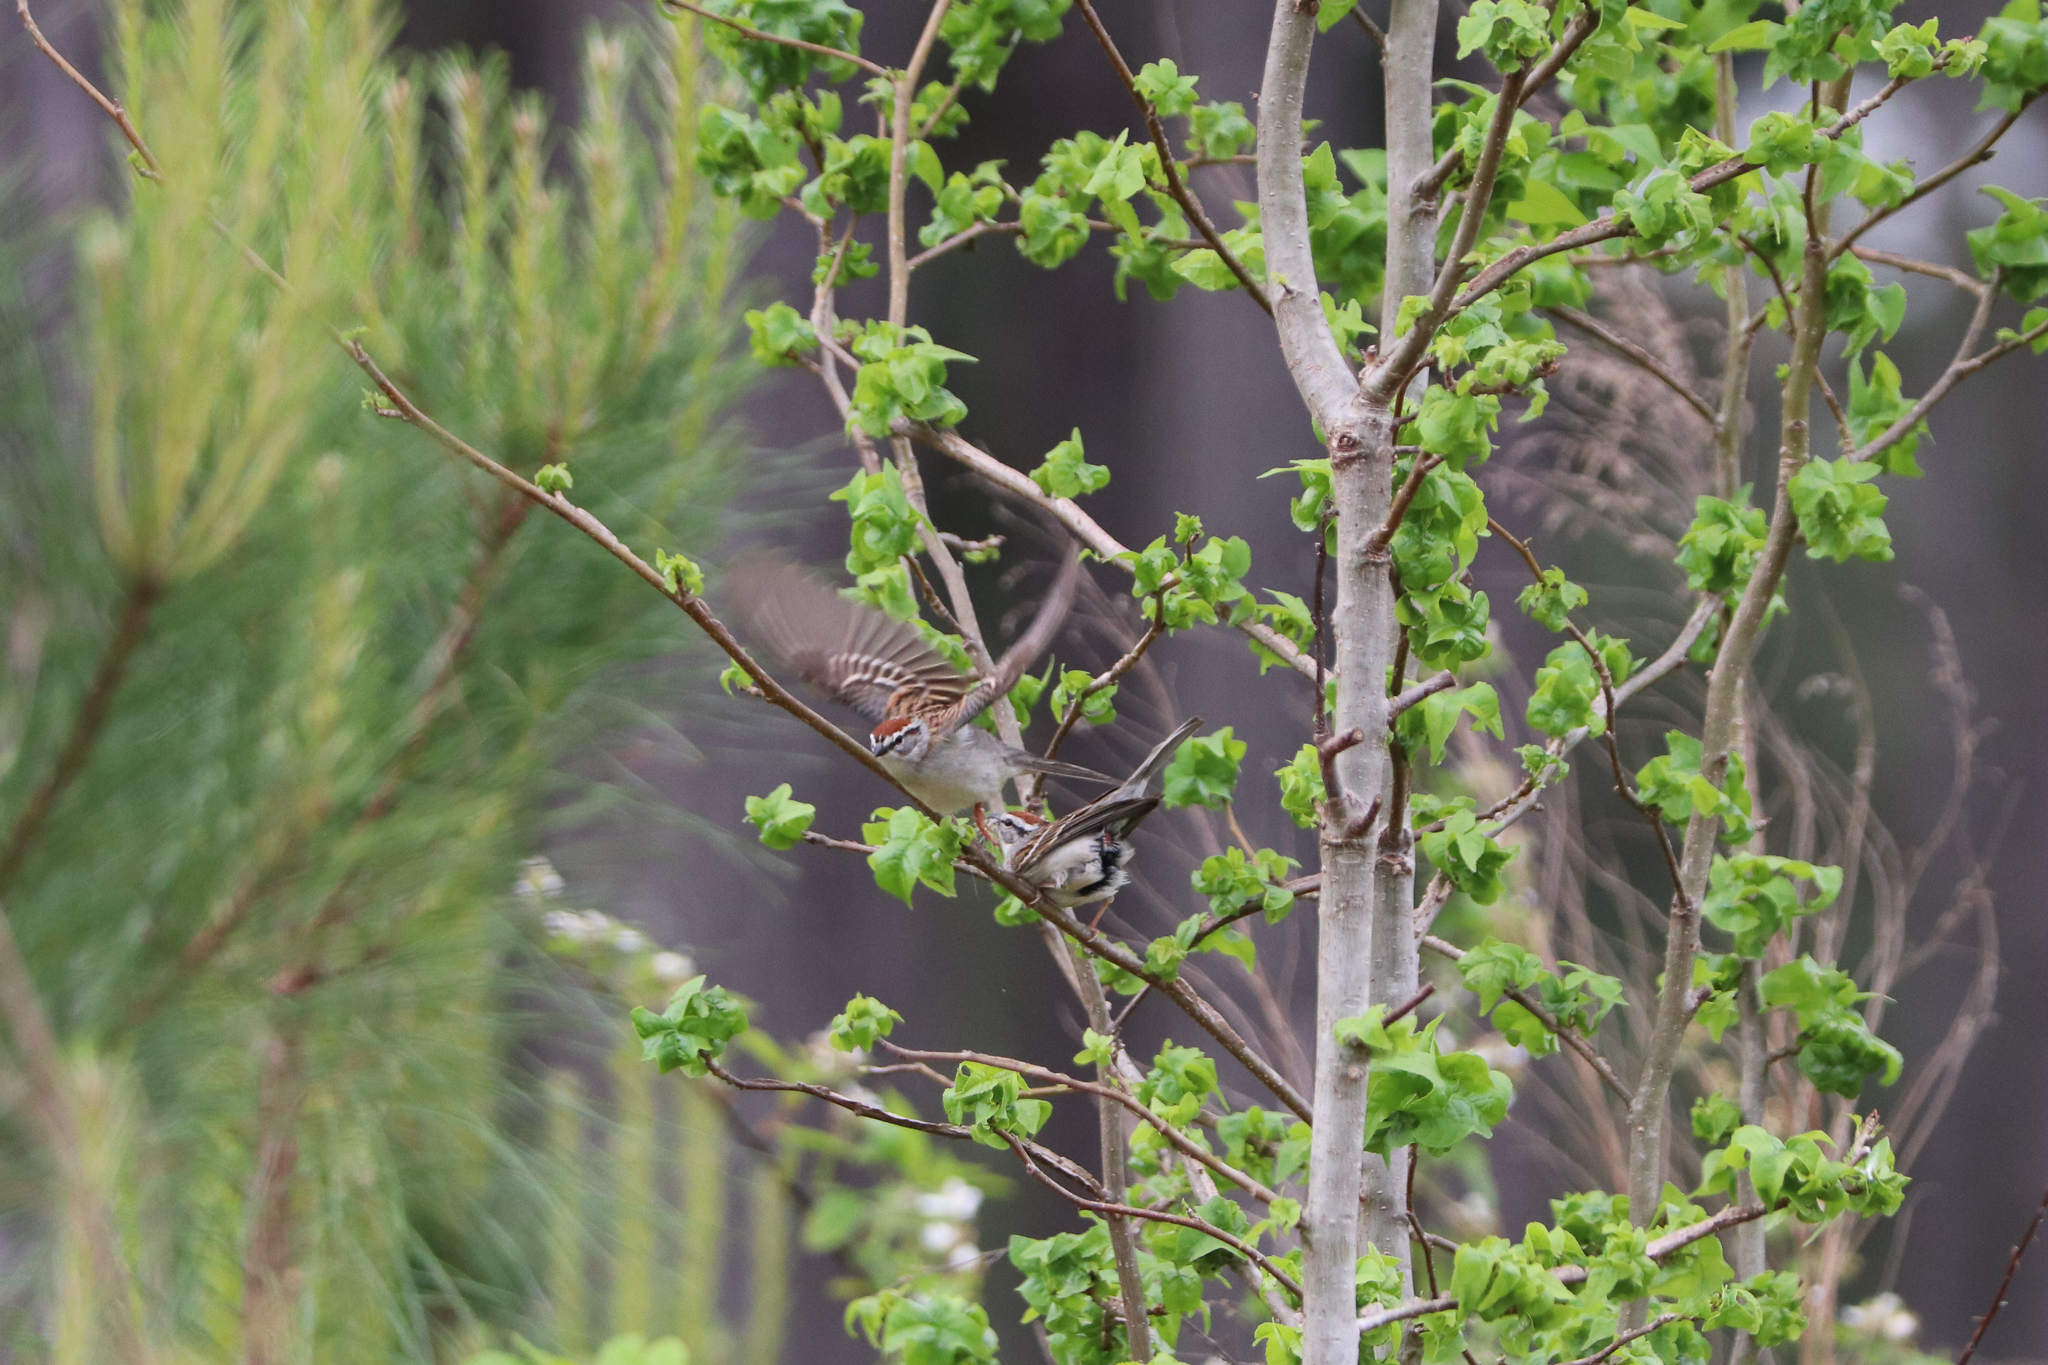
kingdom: Animalia
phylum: Chordata
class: Aves
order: Passeriformes
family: Passerellidae
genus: Spizella
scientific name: Spizella passerina
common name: Chipping sparrow
